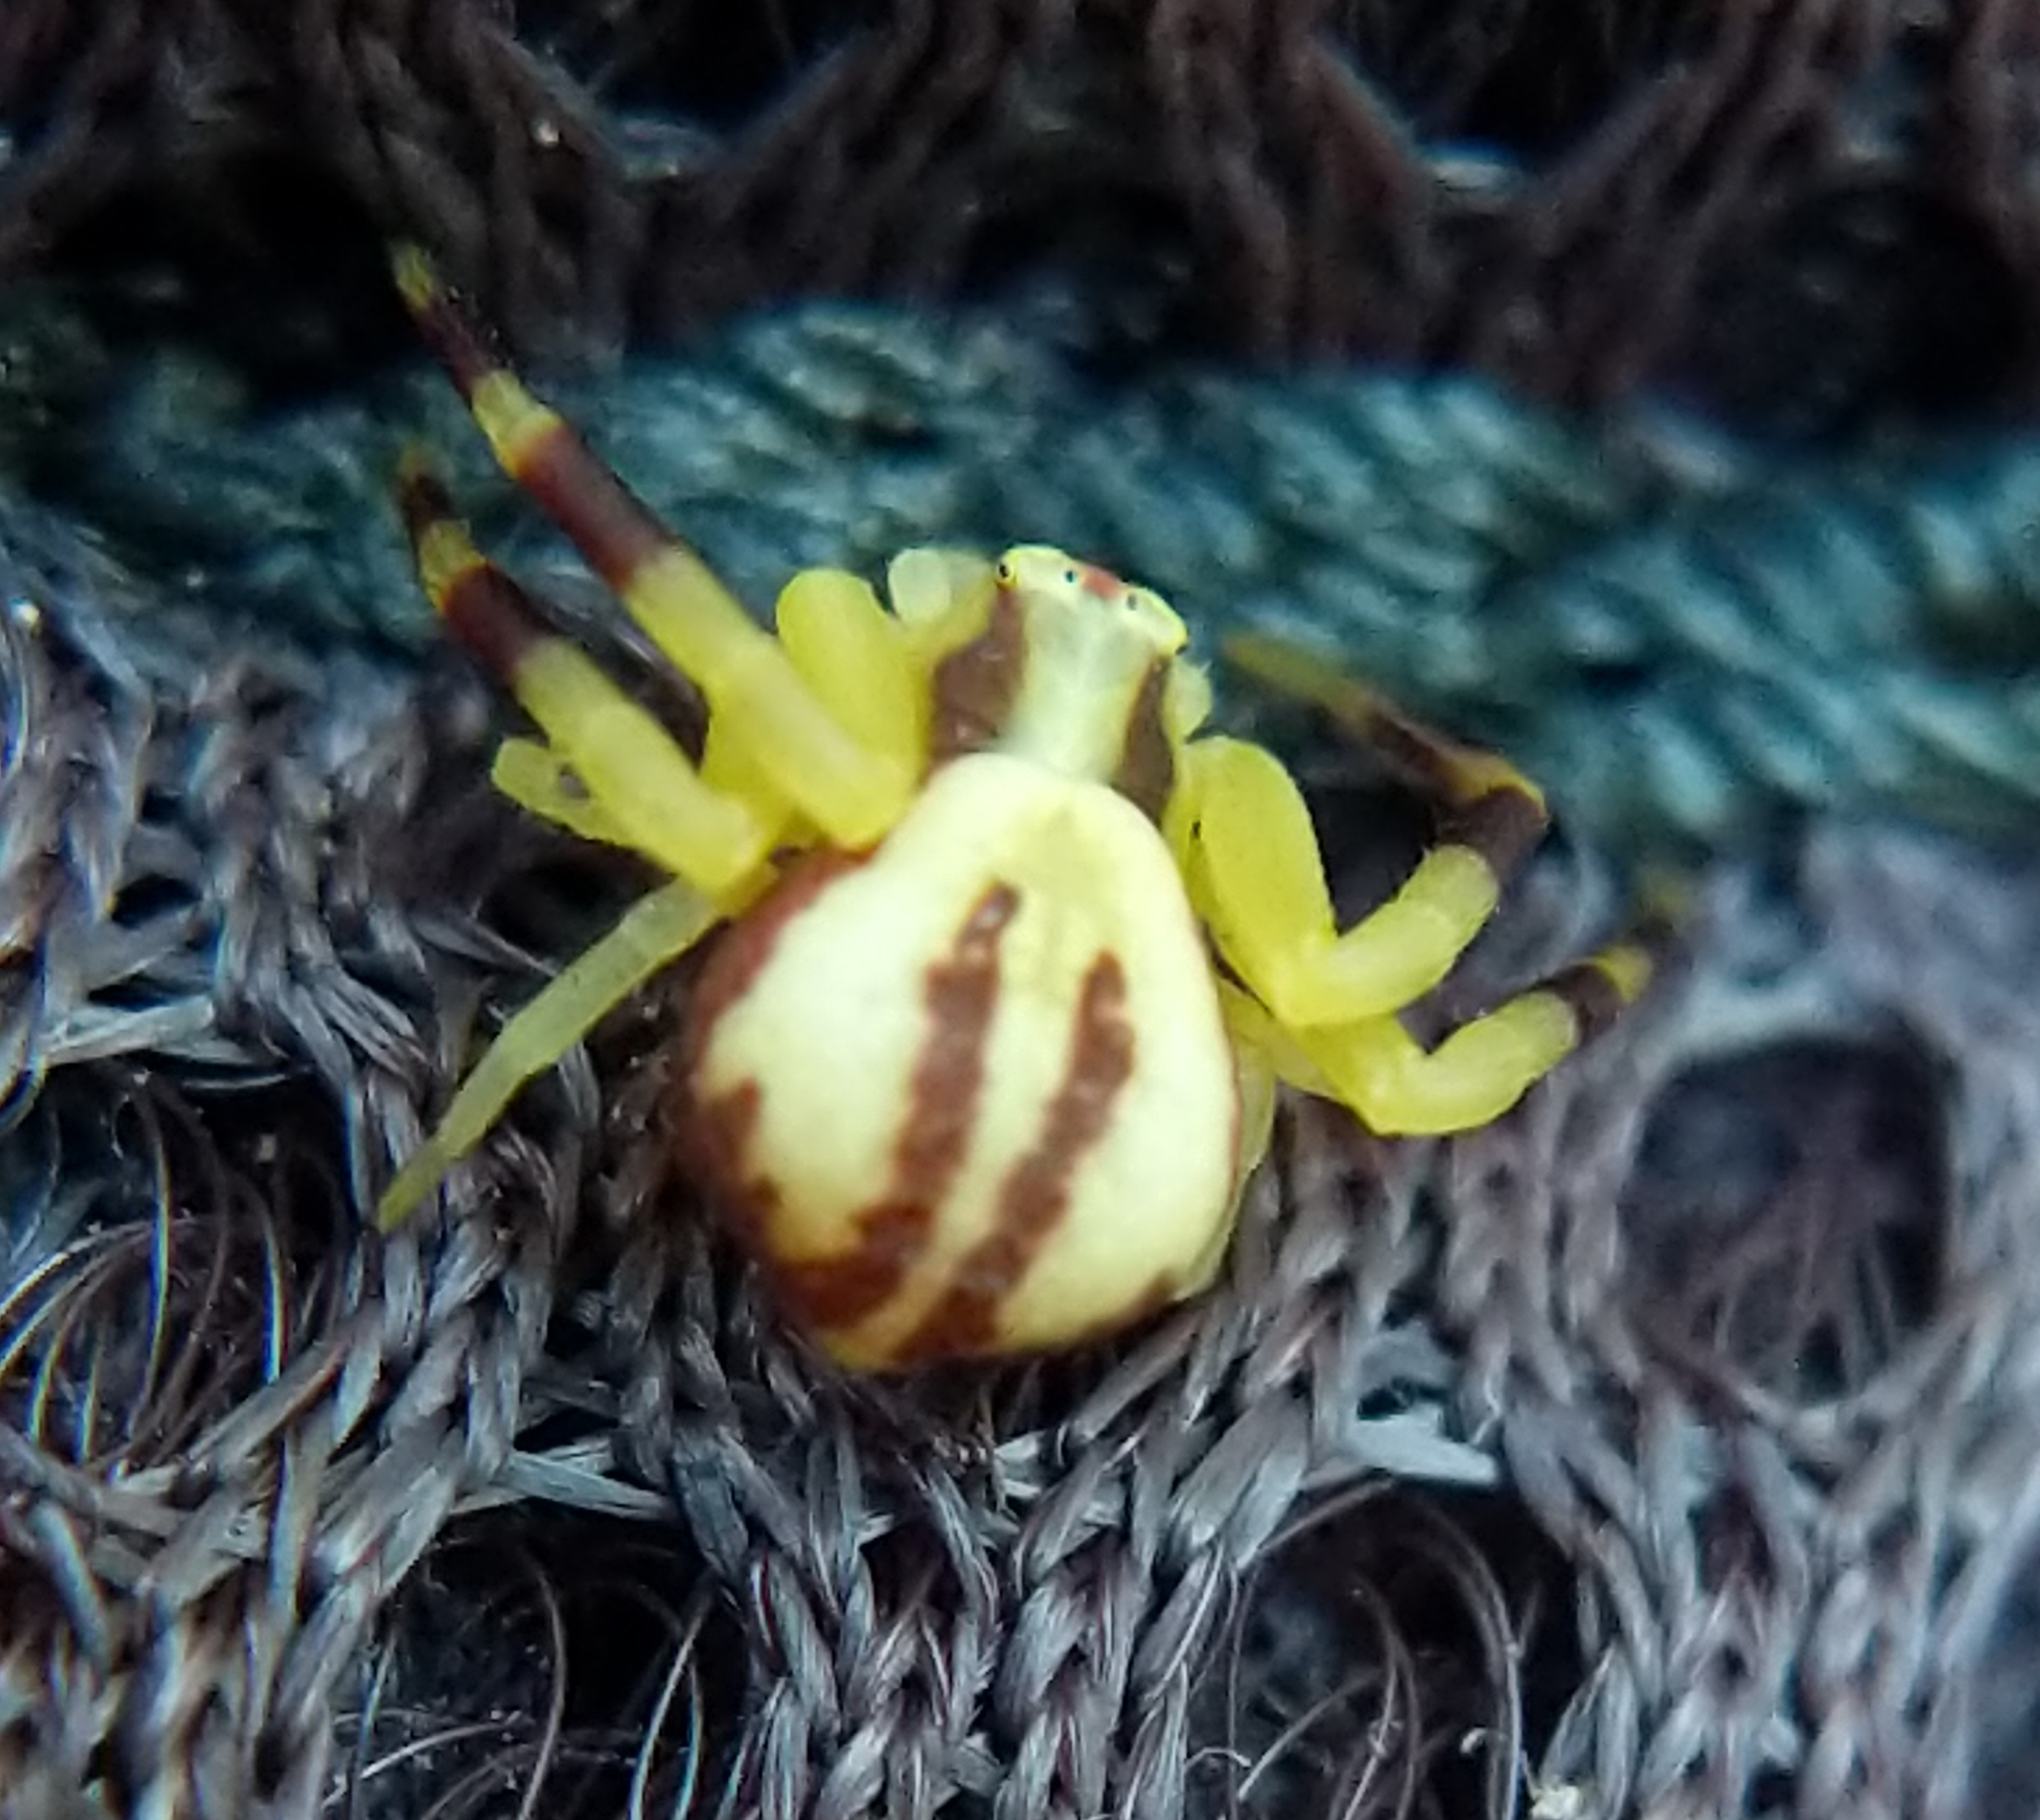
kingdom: Animalia
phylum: Arthropoda
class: Arachnida
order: Araneae
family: Thomisidae
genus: Misumena
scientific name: Misumena vatia
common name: Goldenrod crab spider
